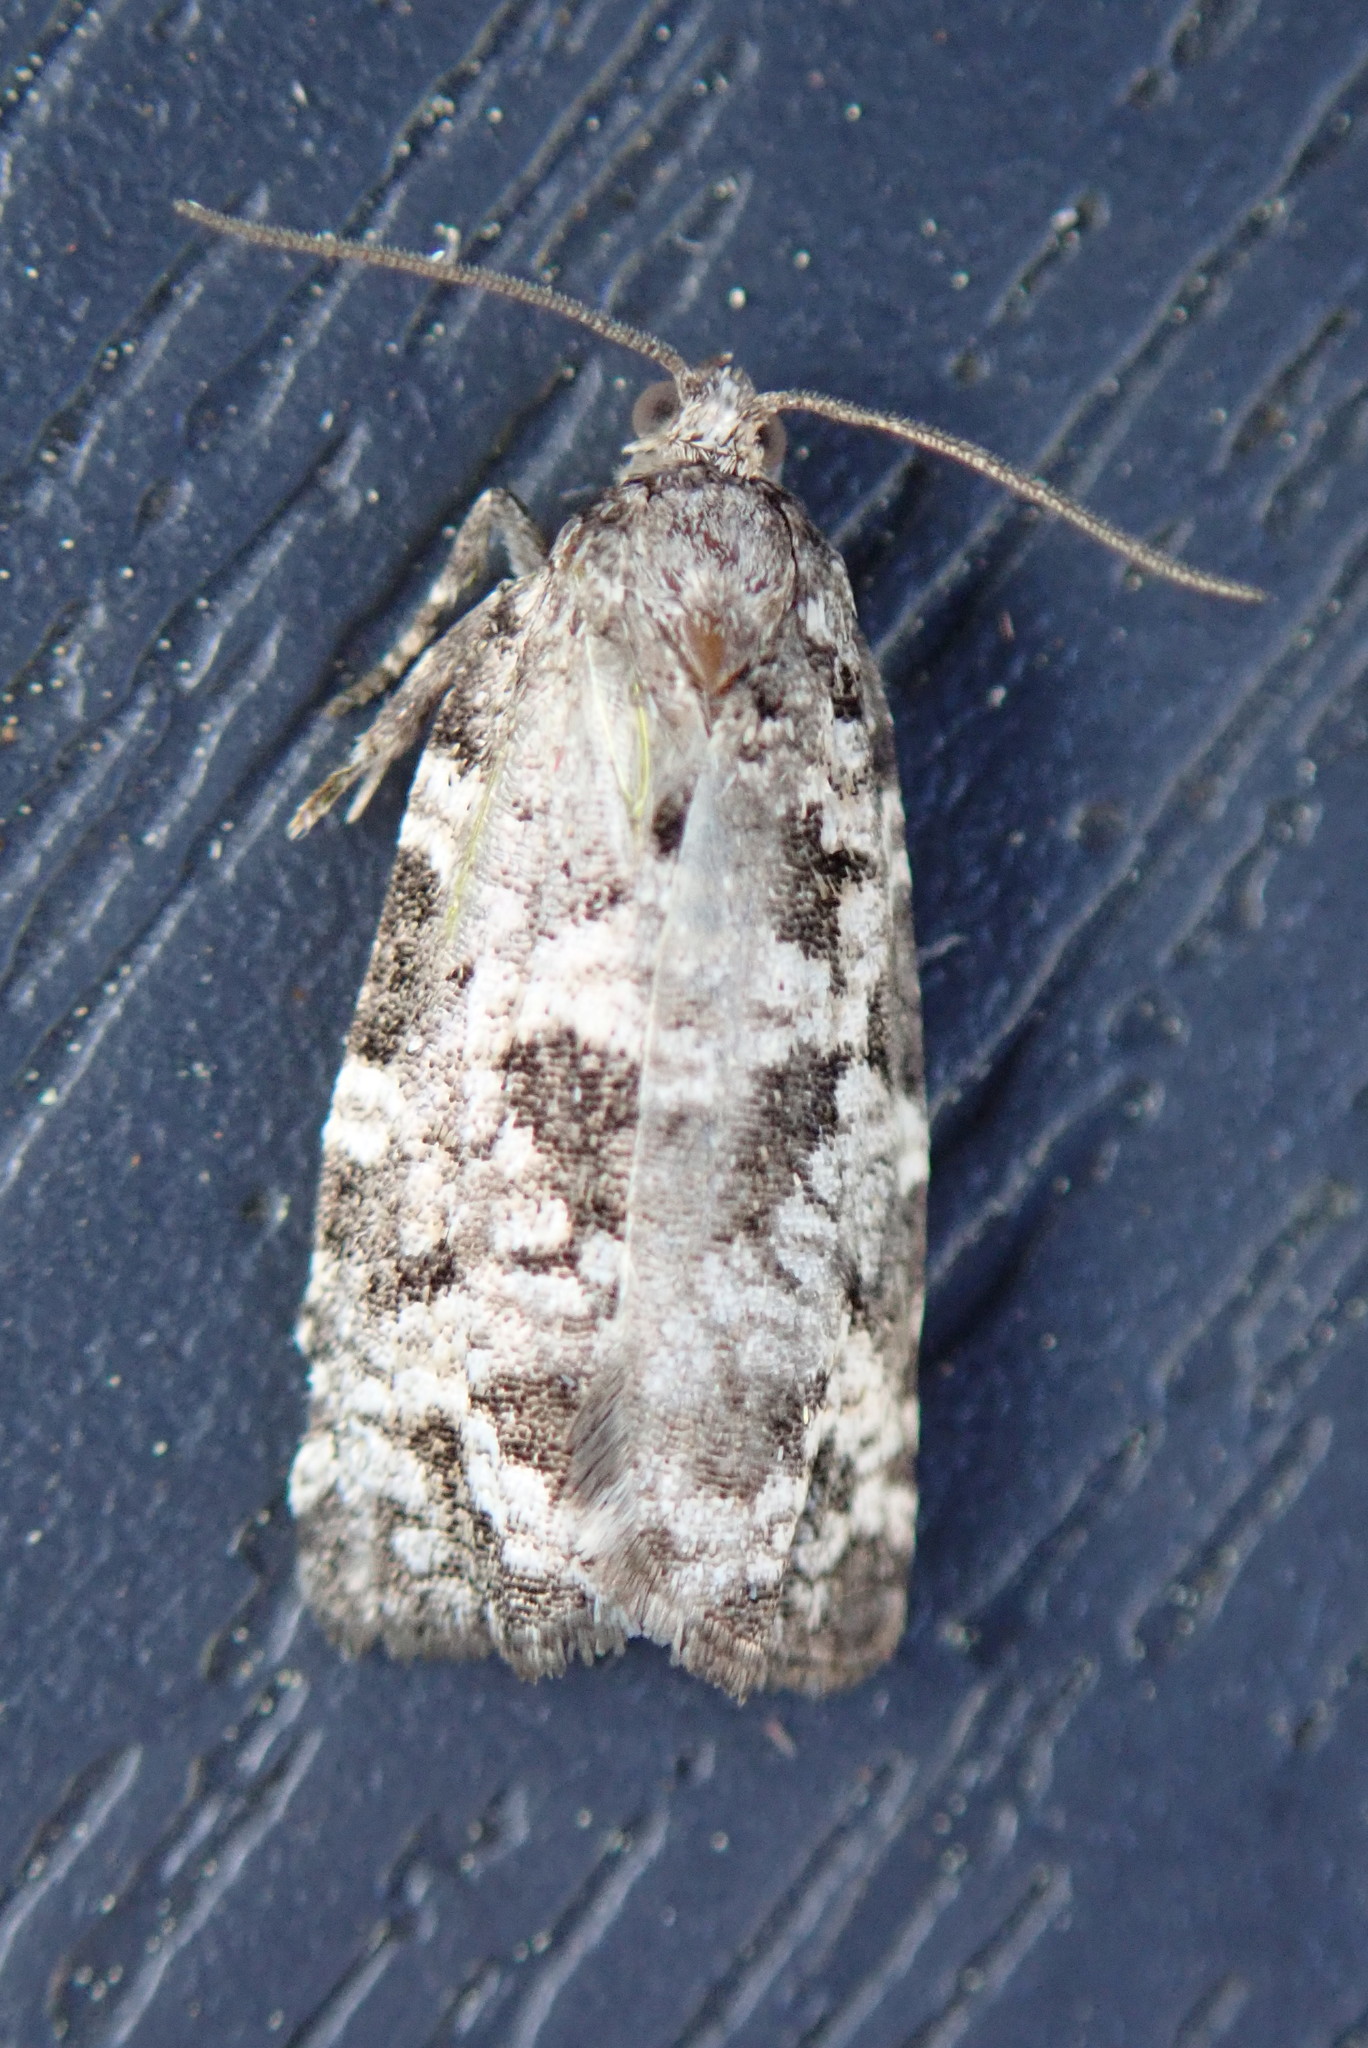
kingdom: Animalia
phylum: Arthropoda
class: Insecta
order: Lepidoptera
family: Tortricidae
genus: Archips
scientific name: Archips packardiana
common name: Spring spruce needle moth
